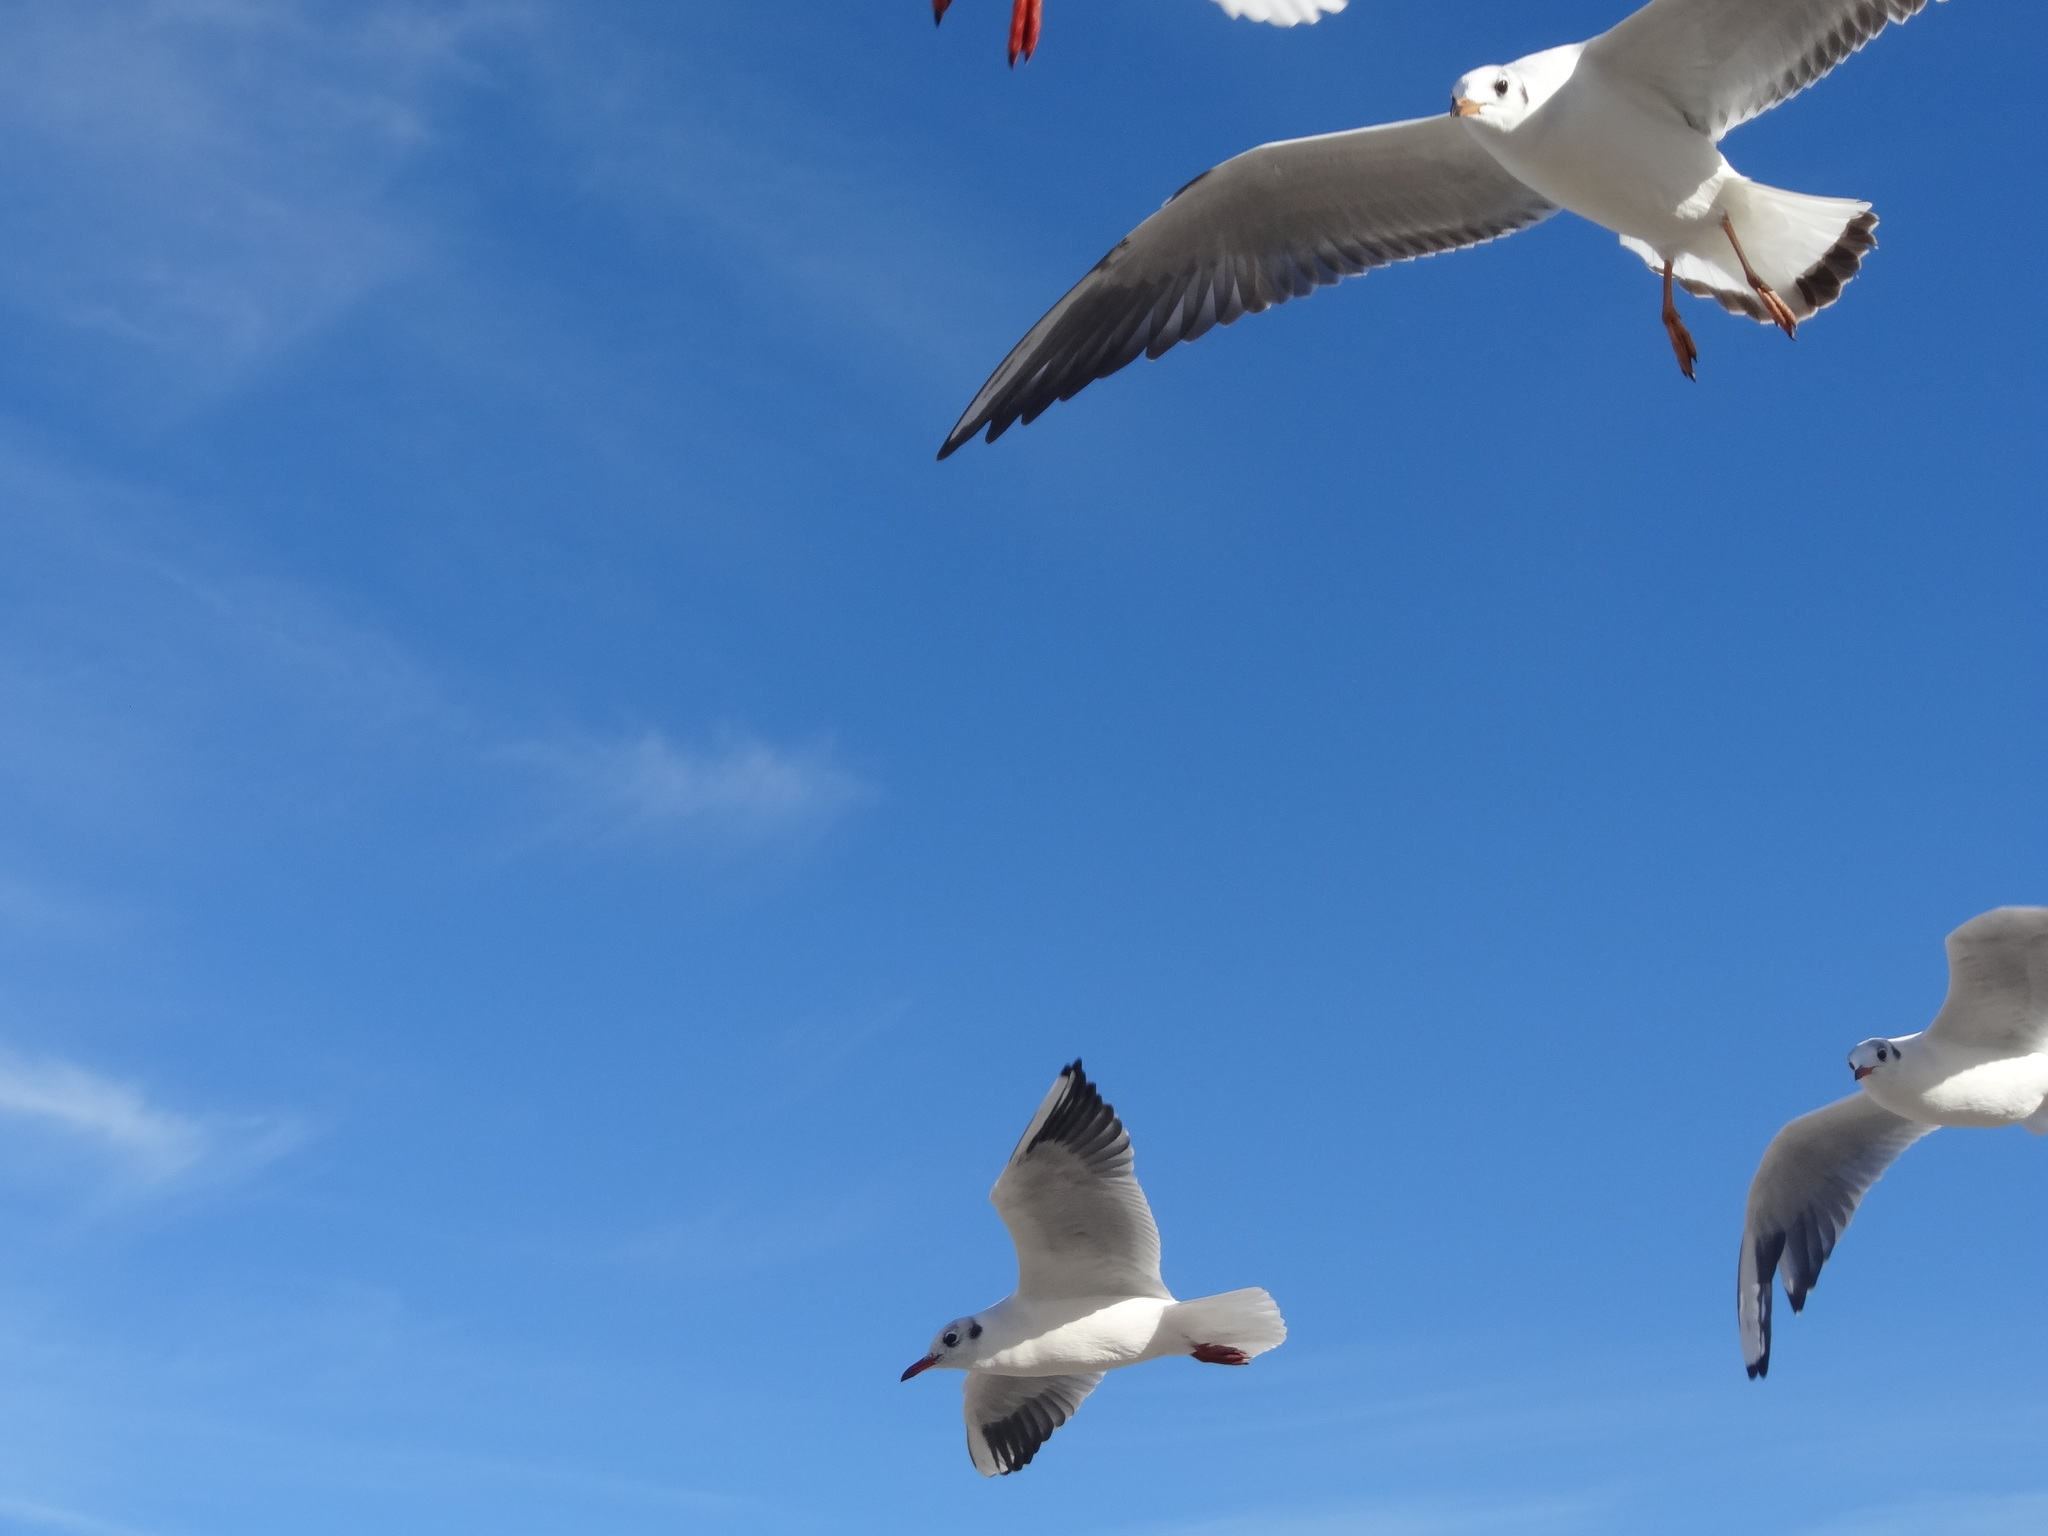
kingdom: Animalia
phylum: Chordata
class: Aves
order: Charadriiformes
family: Laridae
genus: Chroicocephalus
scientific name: Chroicocephalus ridibundus
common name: Black-headed gull
